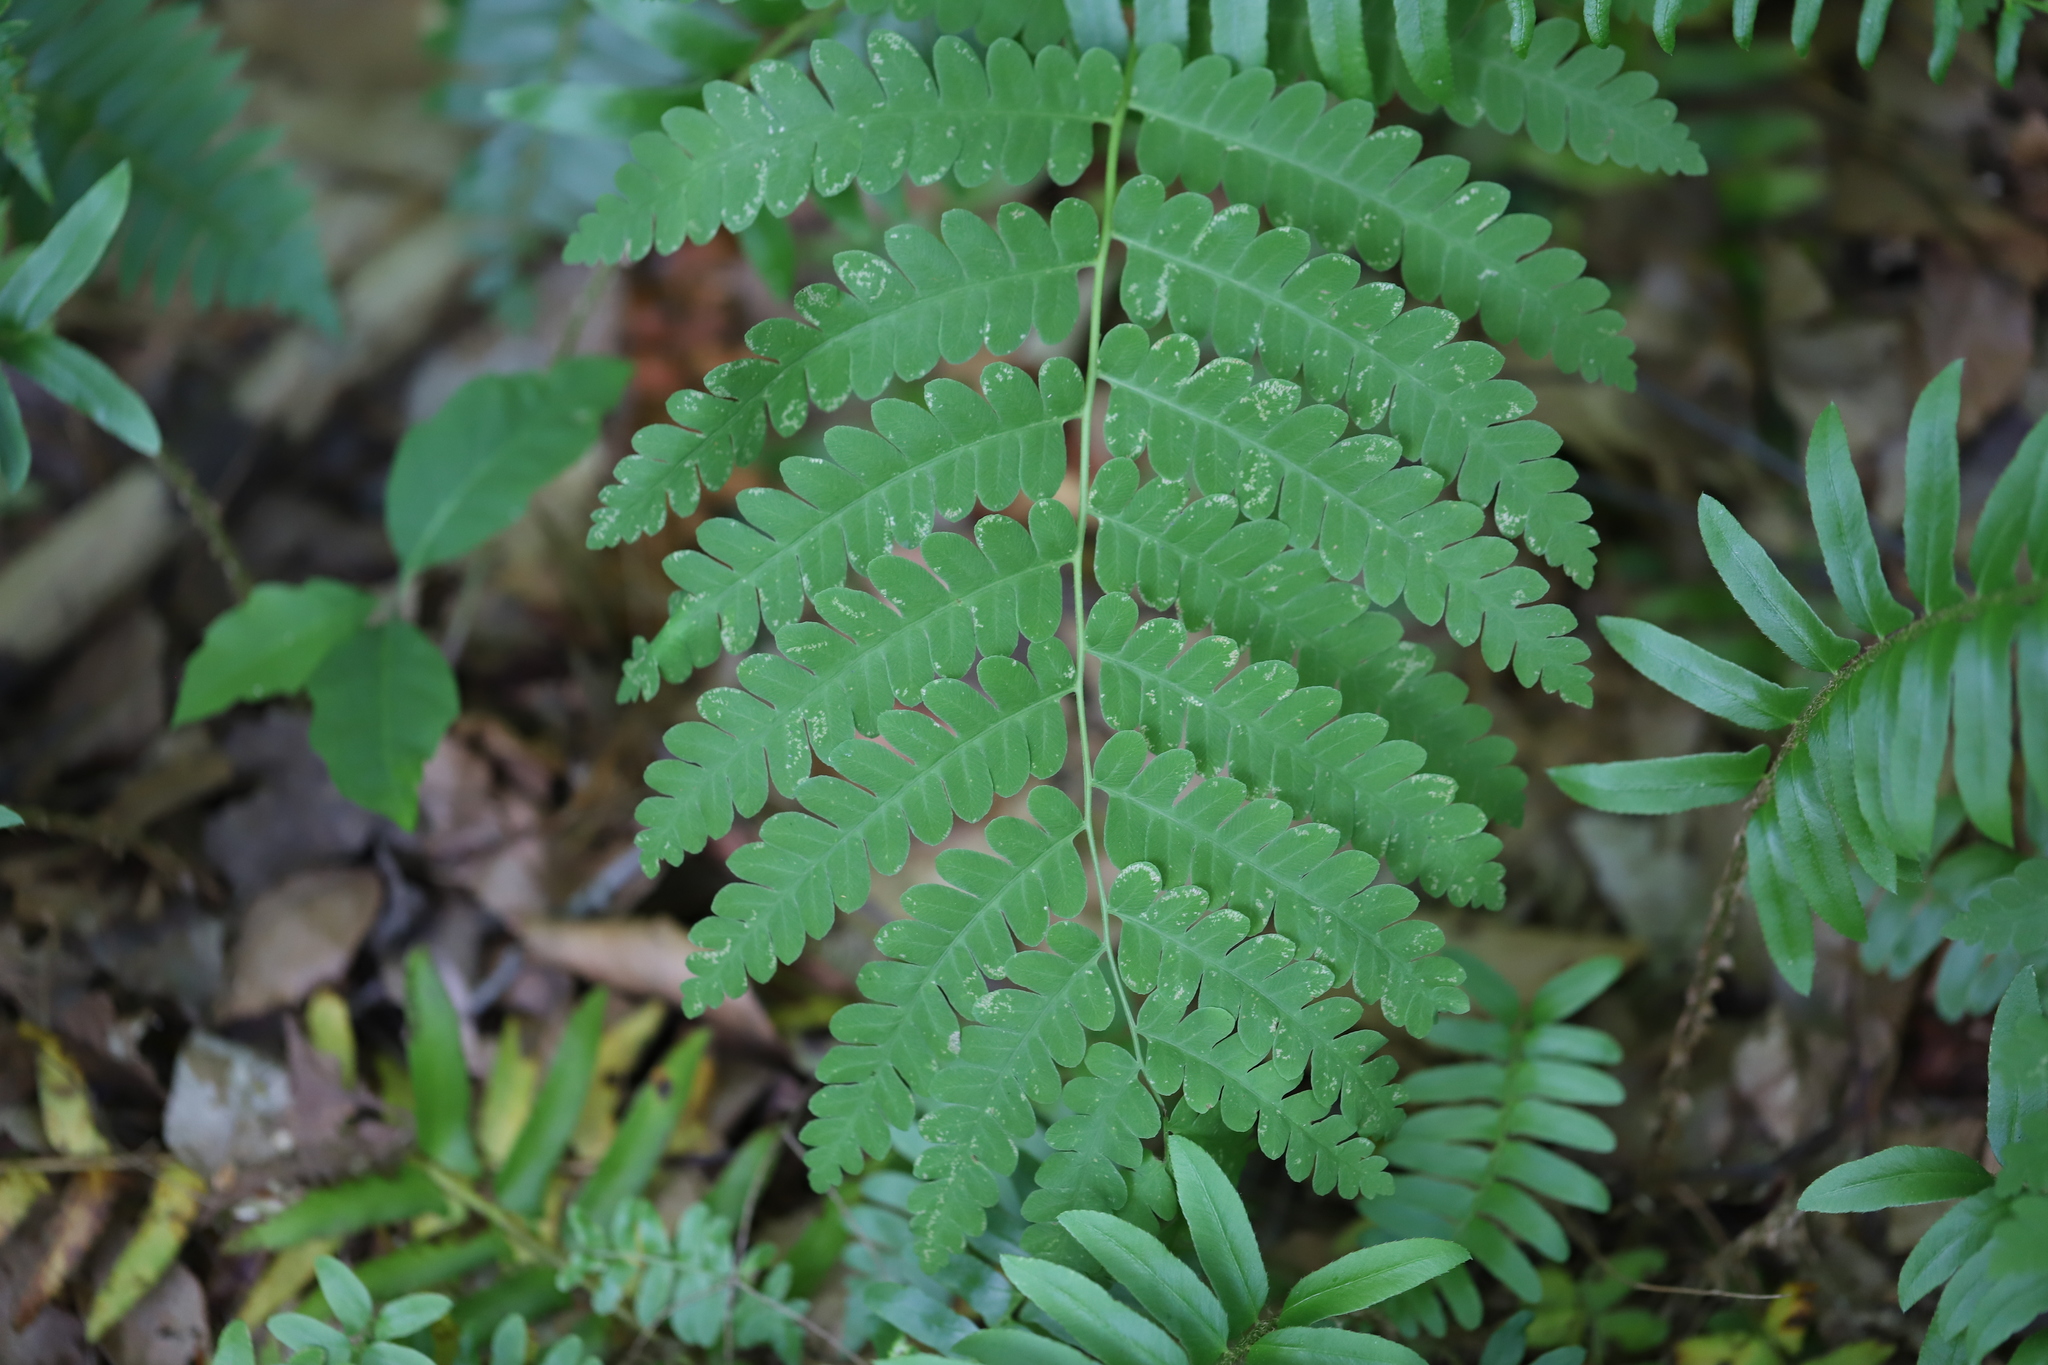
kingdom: Plantae
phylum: Tracheophyta
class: Polypodiopsida
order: Osmundales
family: Osmundaceae
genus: Claytosmunda
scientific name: Claytosmunda claytoniana
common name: Clayton's fern
